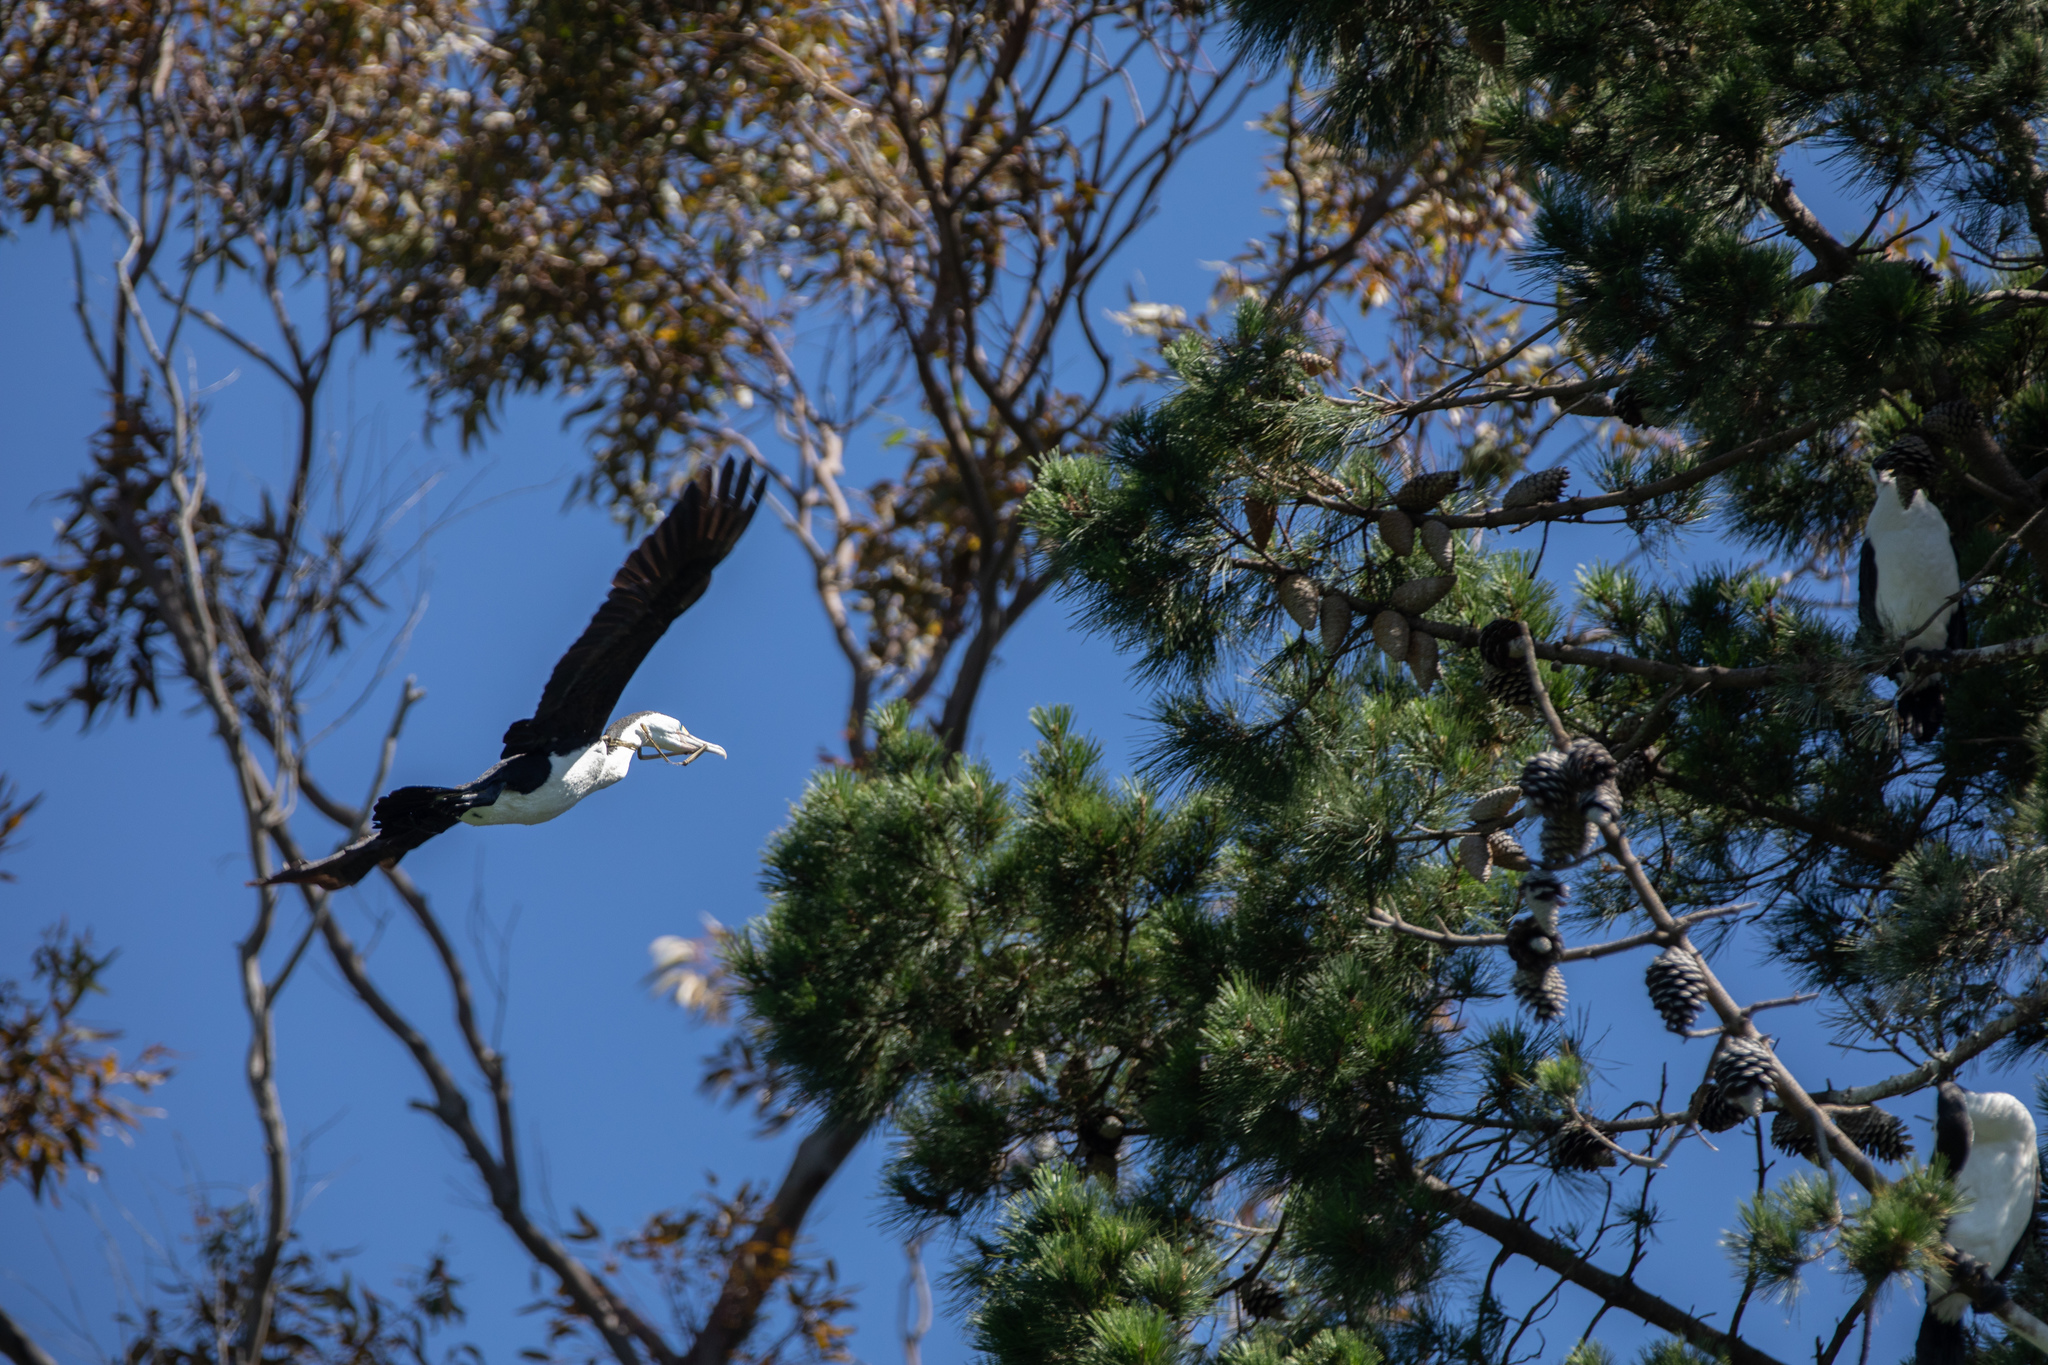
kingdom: Animalia
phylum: Chordata
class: Aves
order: Suliformes
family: Phalacrocoracidae
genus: Phalacrocorax
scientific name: Phalacrocorax varius
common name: Pied cormorant
